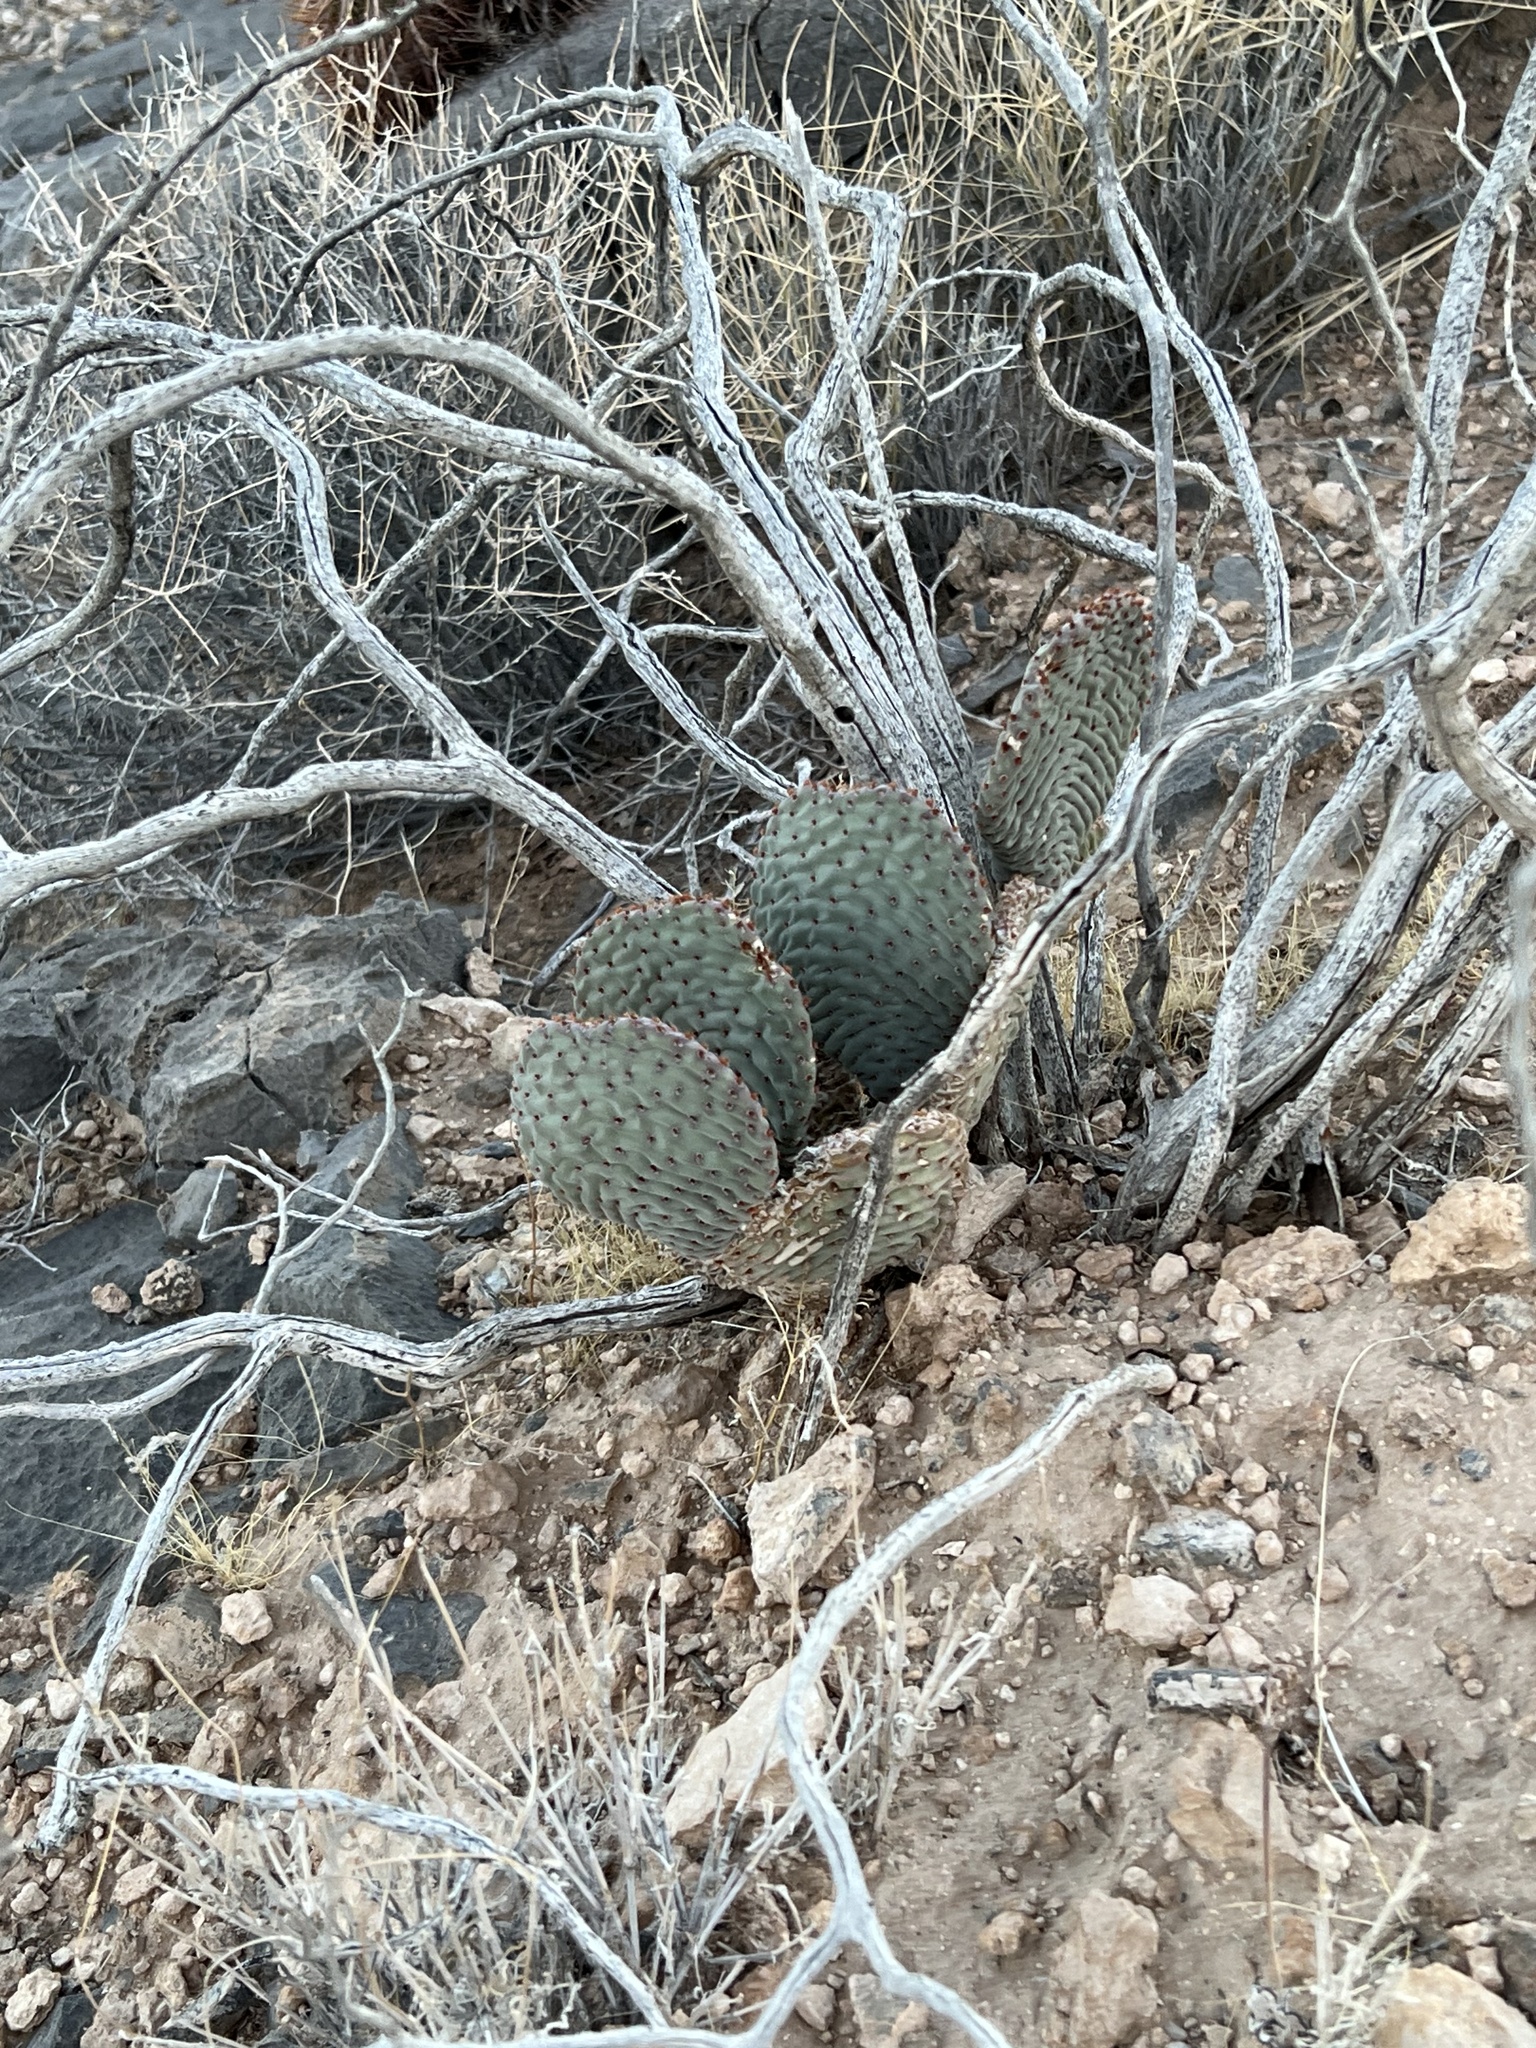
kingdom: Plantae
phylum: Tracheophyta
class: Magnoliopsida
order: Caryophyllales
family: Cactaceae
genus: Opuntia
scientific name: Opuntia basilaris
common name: Beavertail prickly-pear
